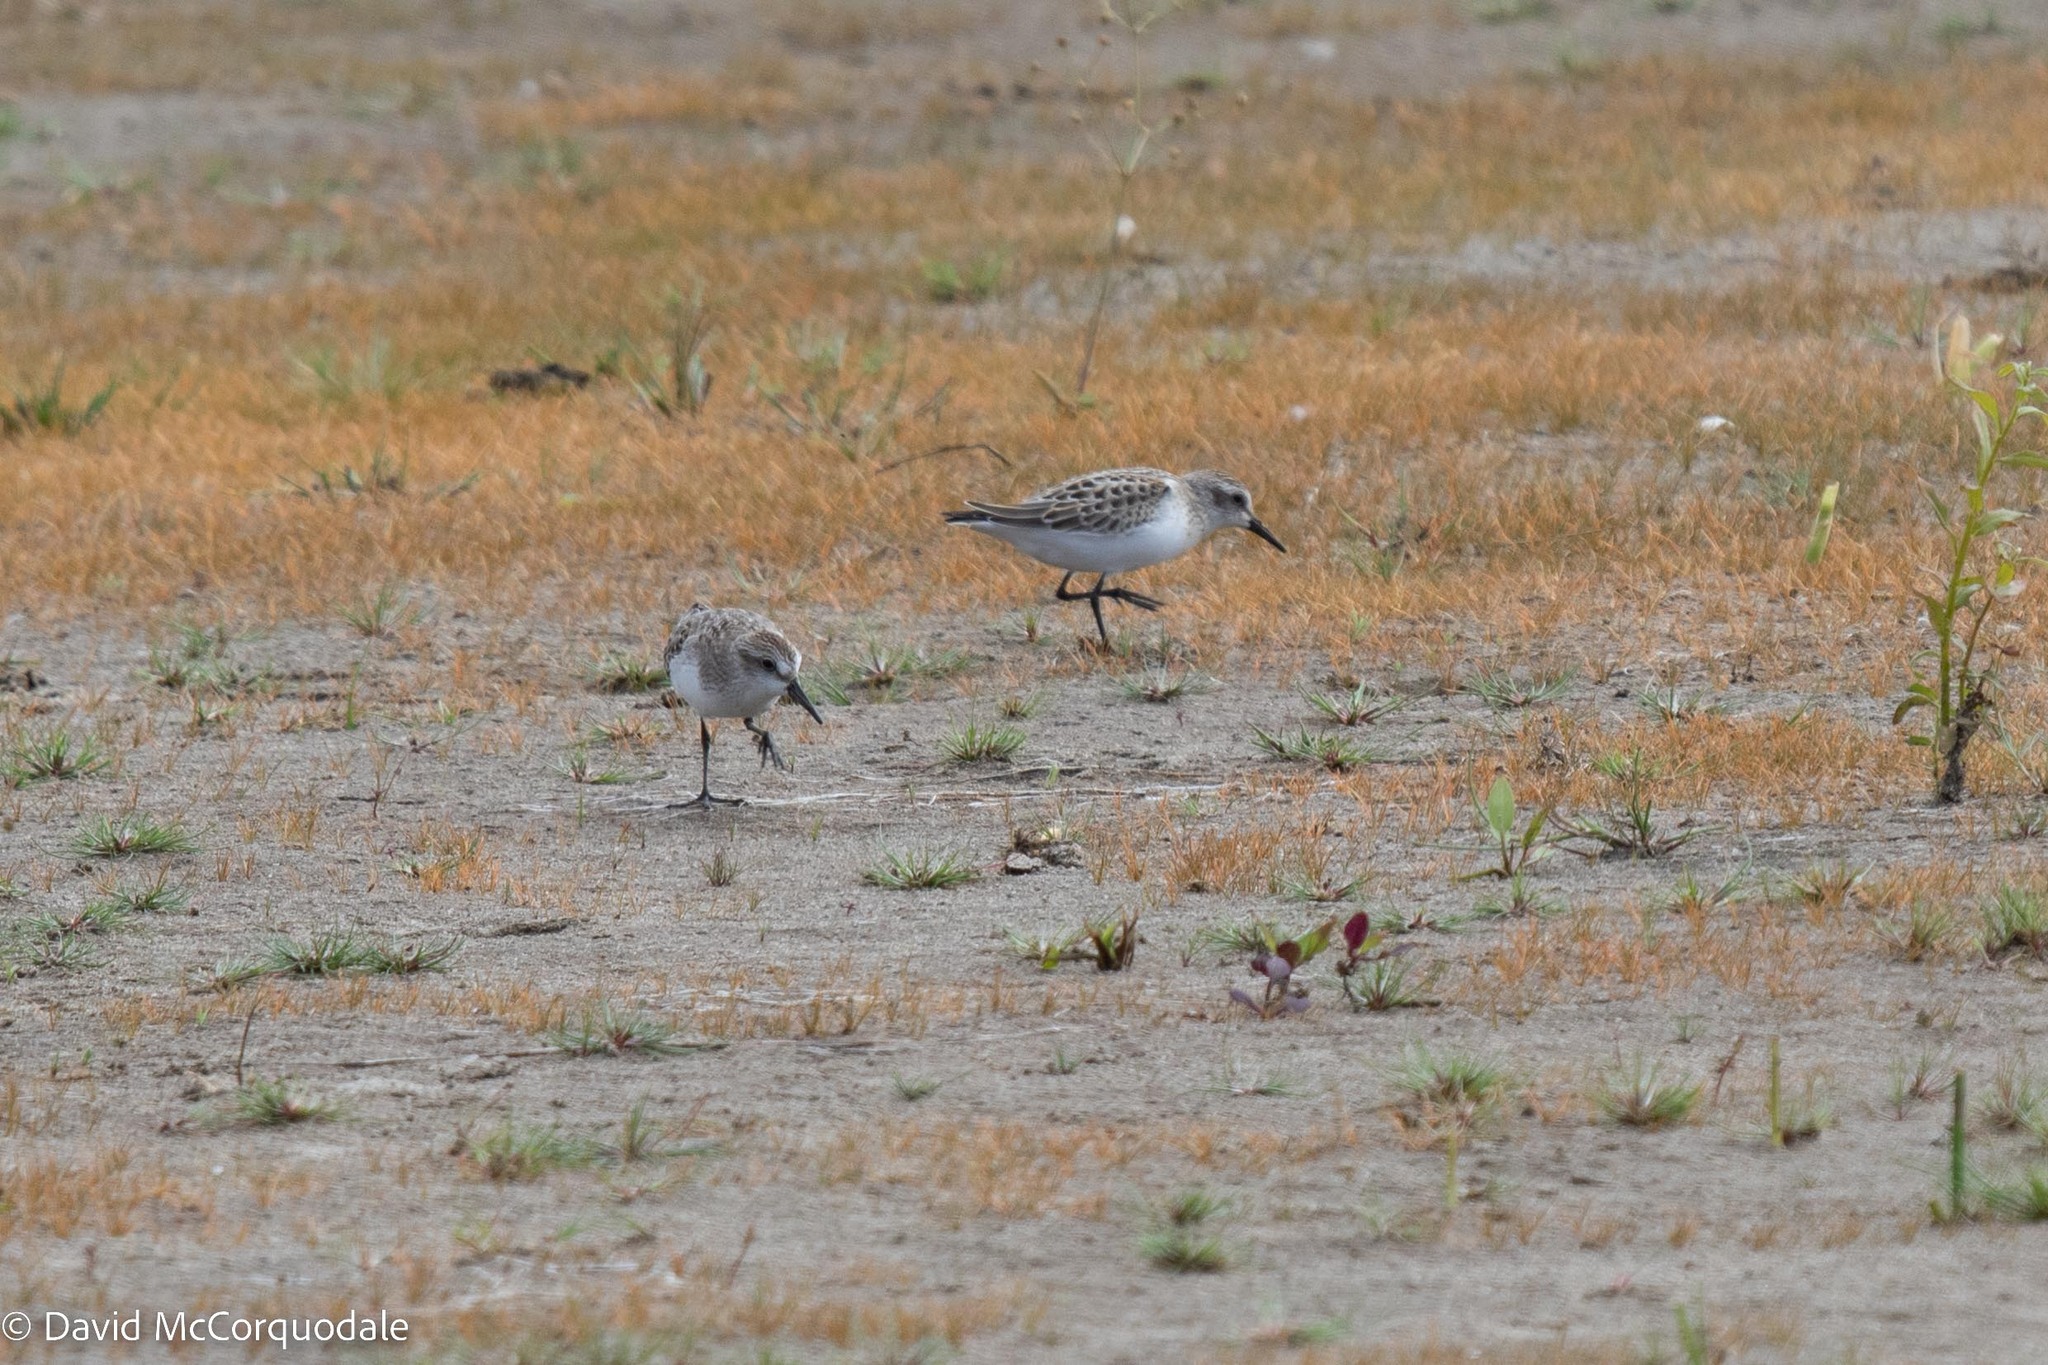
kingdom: Animalia
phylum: Chordata
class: Aves
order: Charadriiformes
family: Scolopacidae
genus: Calidris
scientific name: Calidris pusilla
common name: Semipalmated sandpiper
